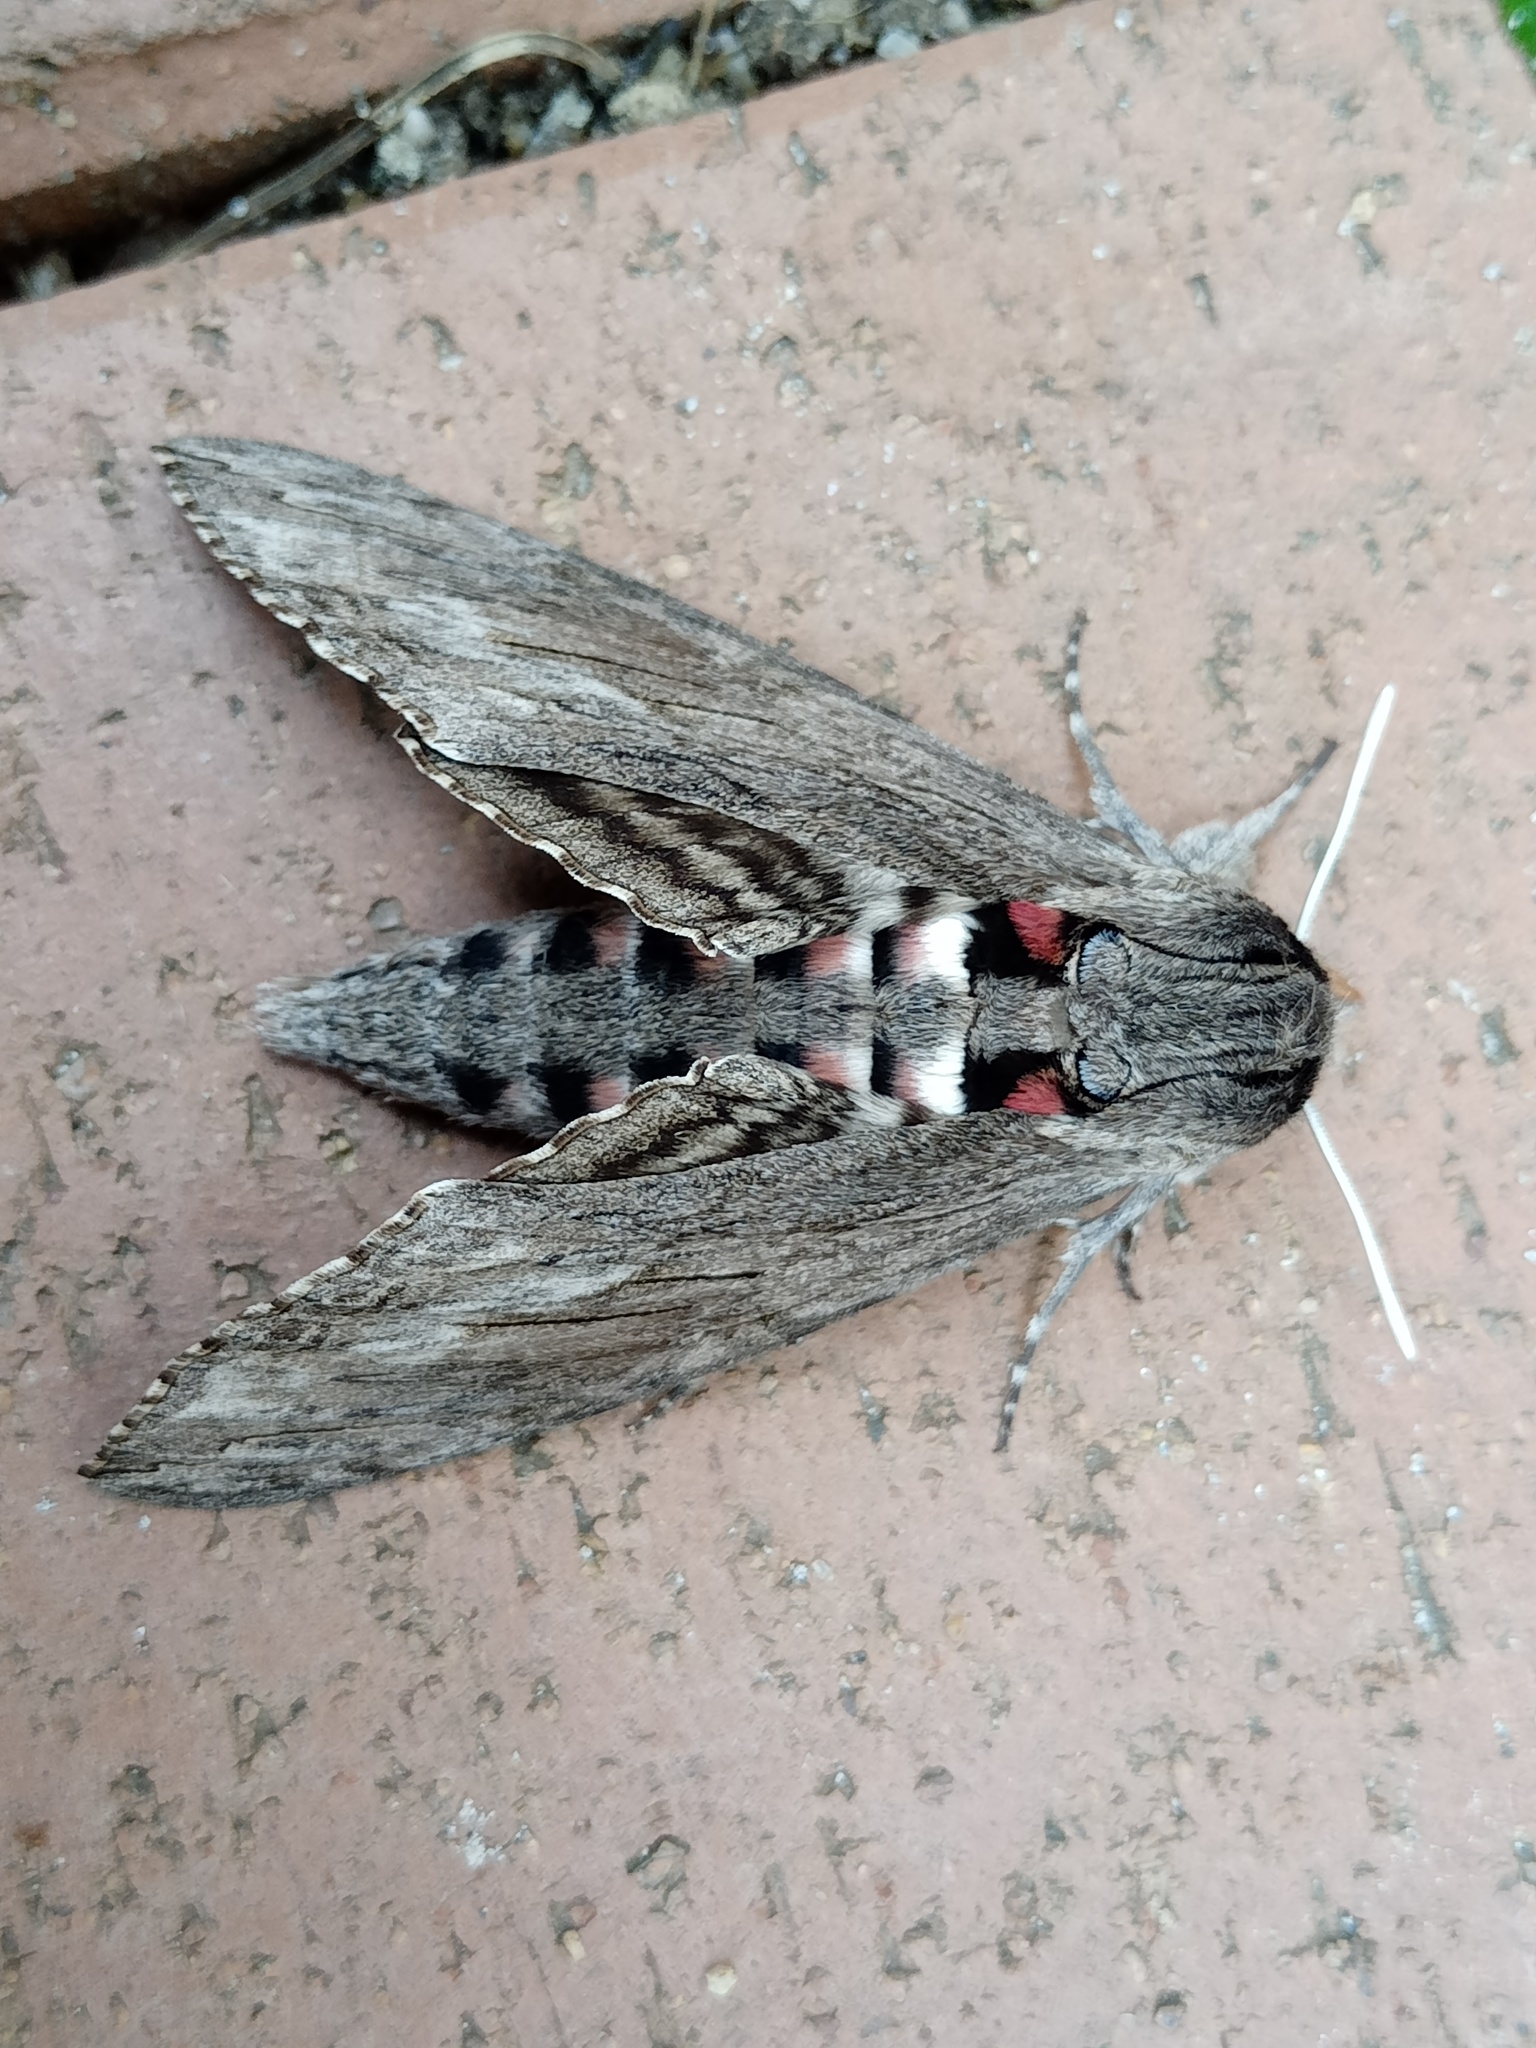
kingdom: Animalia
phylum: Arthropoda
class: Insecta
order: Lepidoptera
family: Sphingidae
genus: Agrius
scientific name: Agrius convolvuli
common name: Convolvulus hawkmoth
